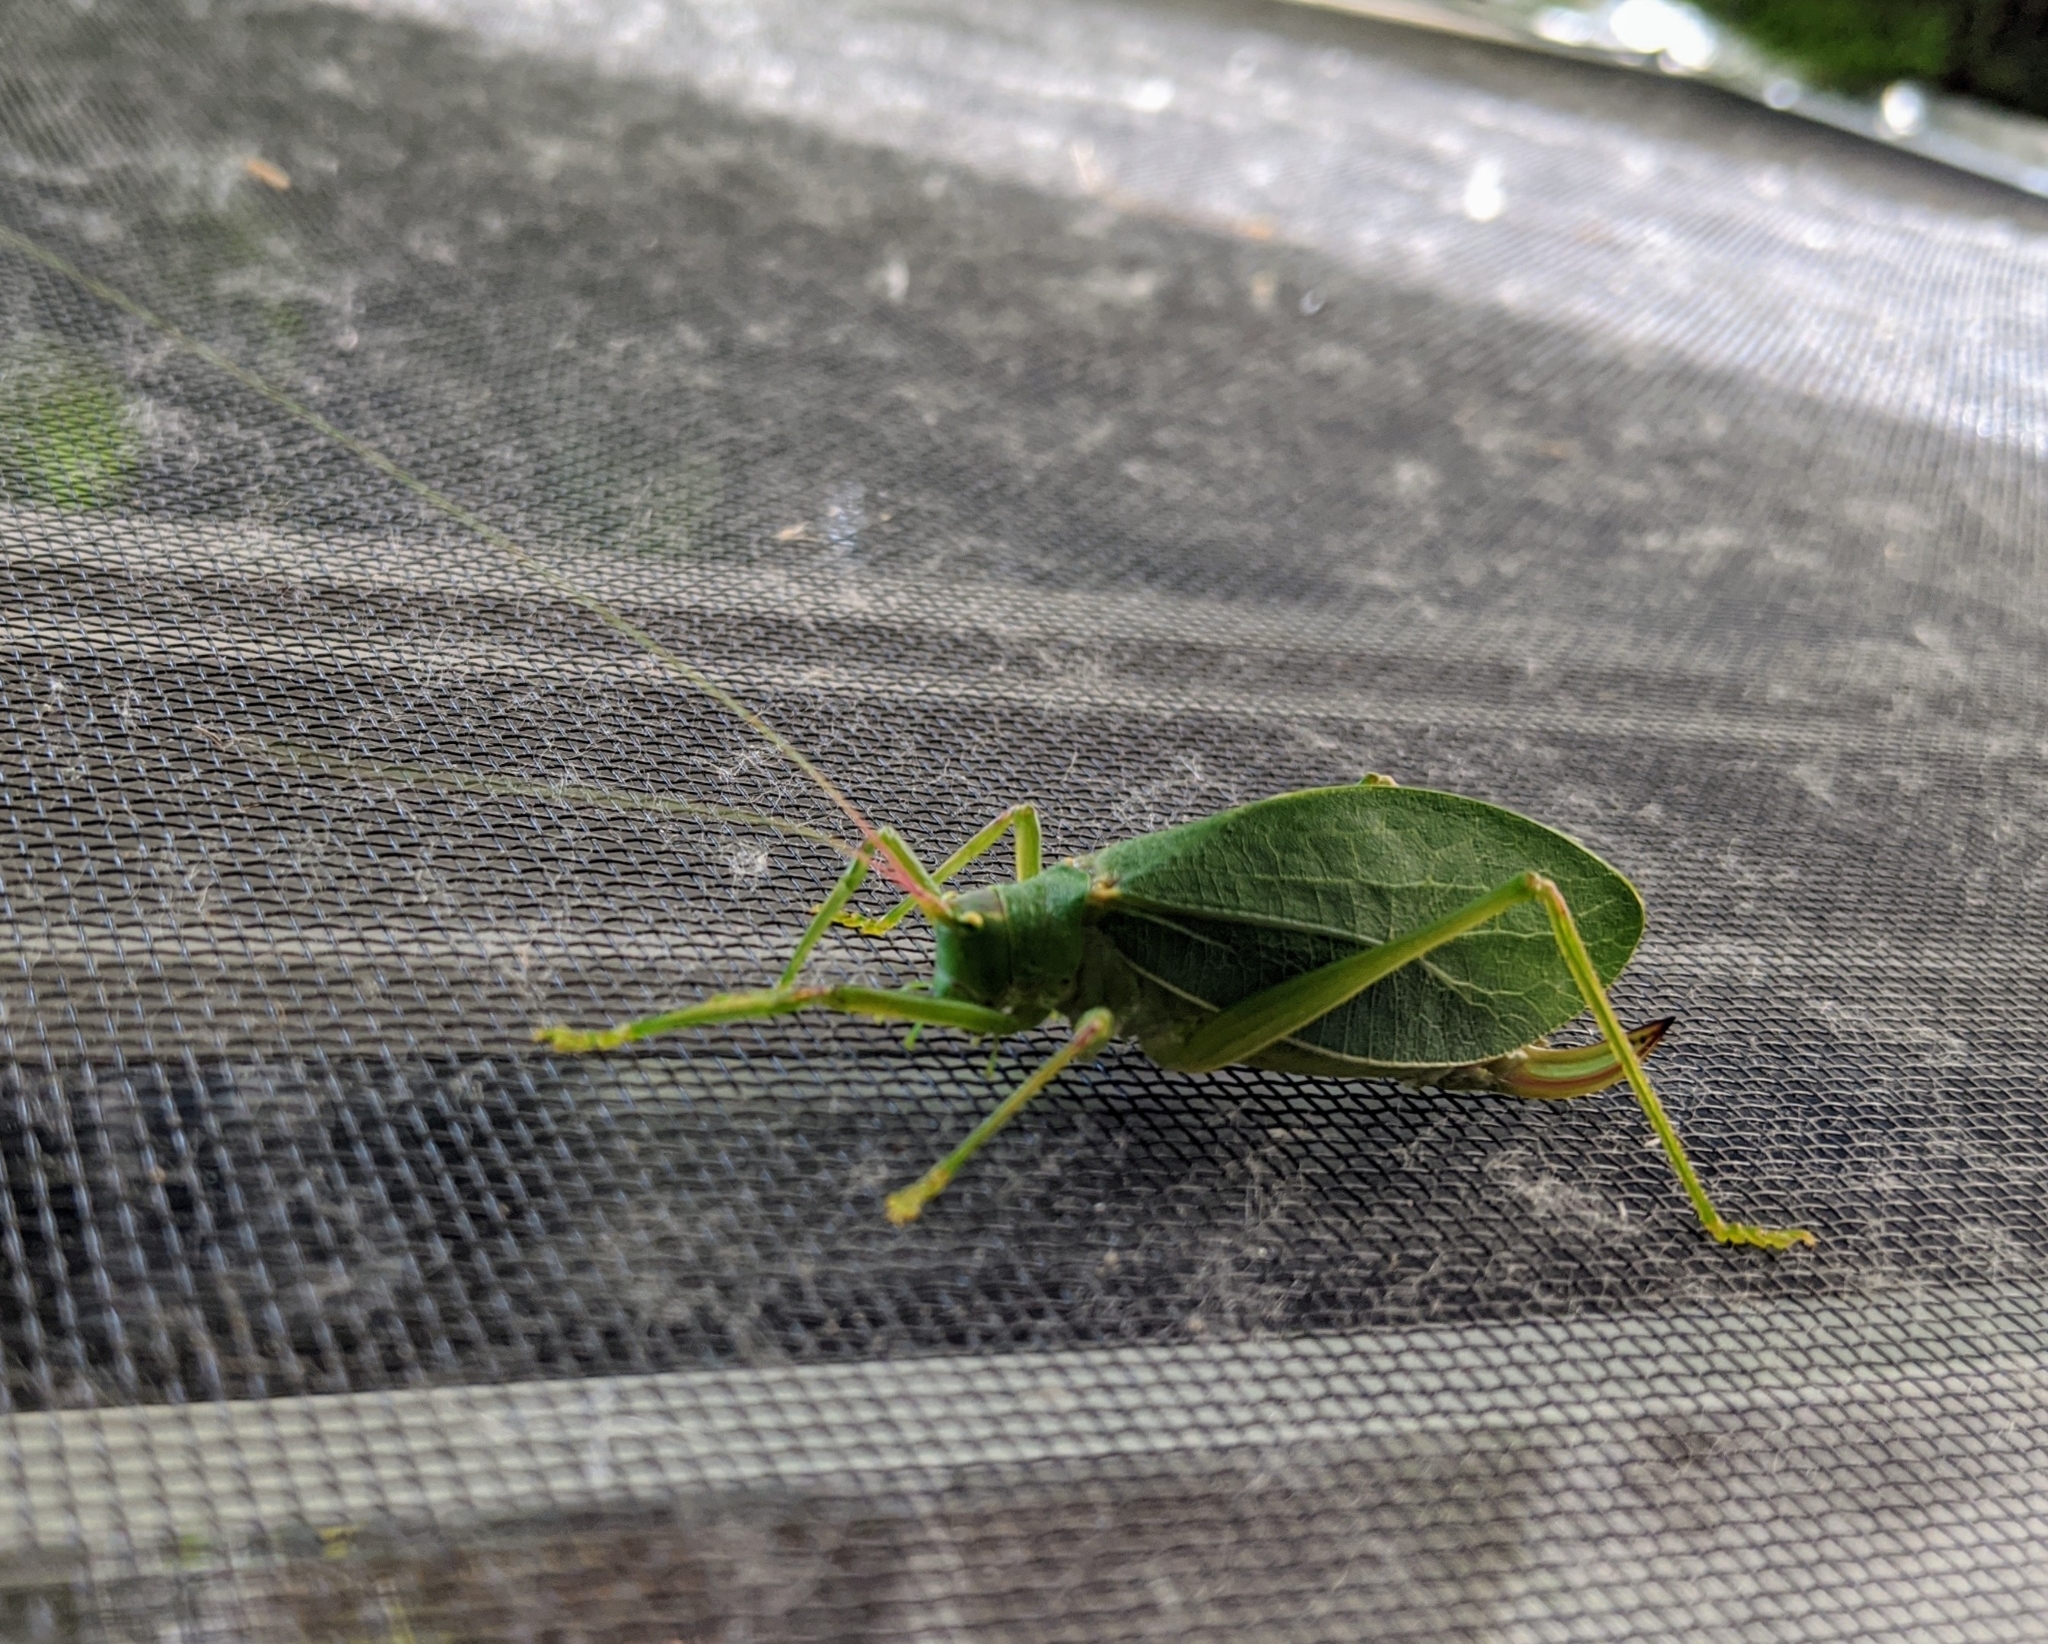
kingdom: Animalia
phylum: Arthropoda
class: Insecta
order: Orthoptera
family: Tettigoniidae
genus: Pterophylla
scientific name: Pterophylla camellifolia
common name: Common true katydid
